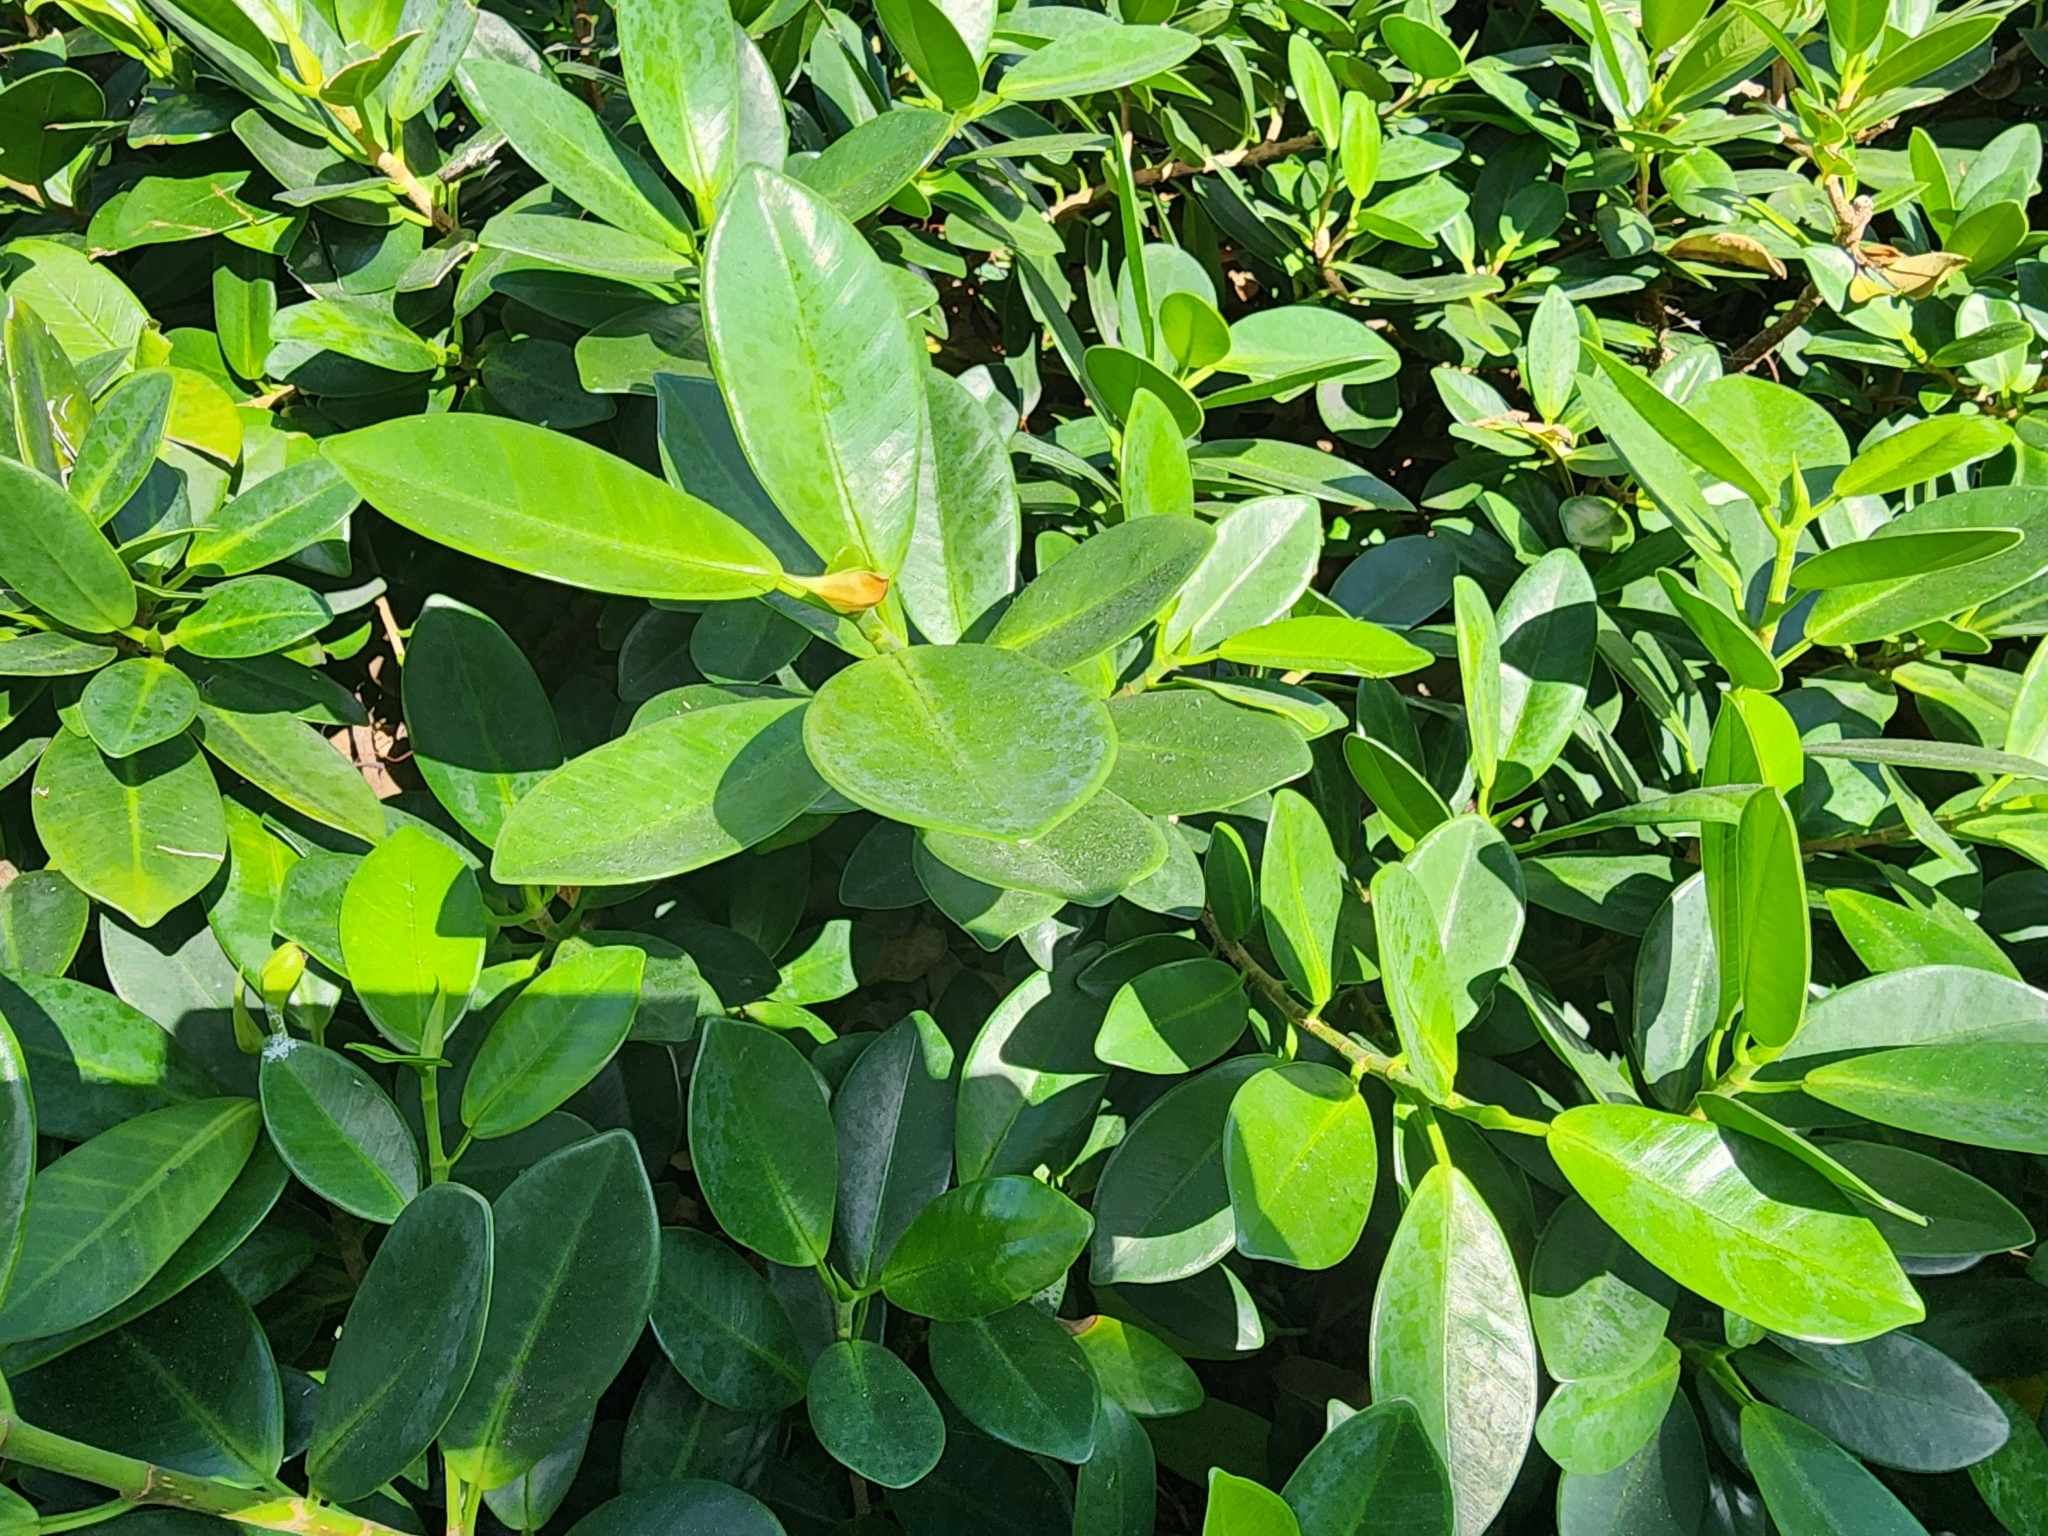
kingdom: Plantae
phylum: Tracheophyta
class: Magnoliopsida
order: Rosales
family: Moraceae
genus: Ficus
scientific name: Ficus microcarpa
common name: Chinese banyan
